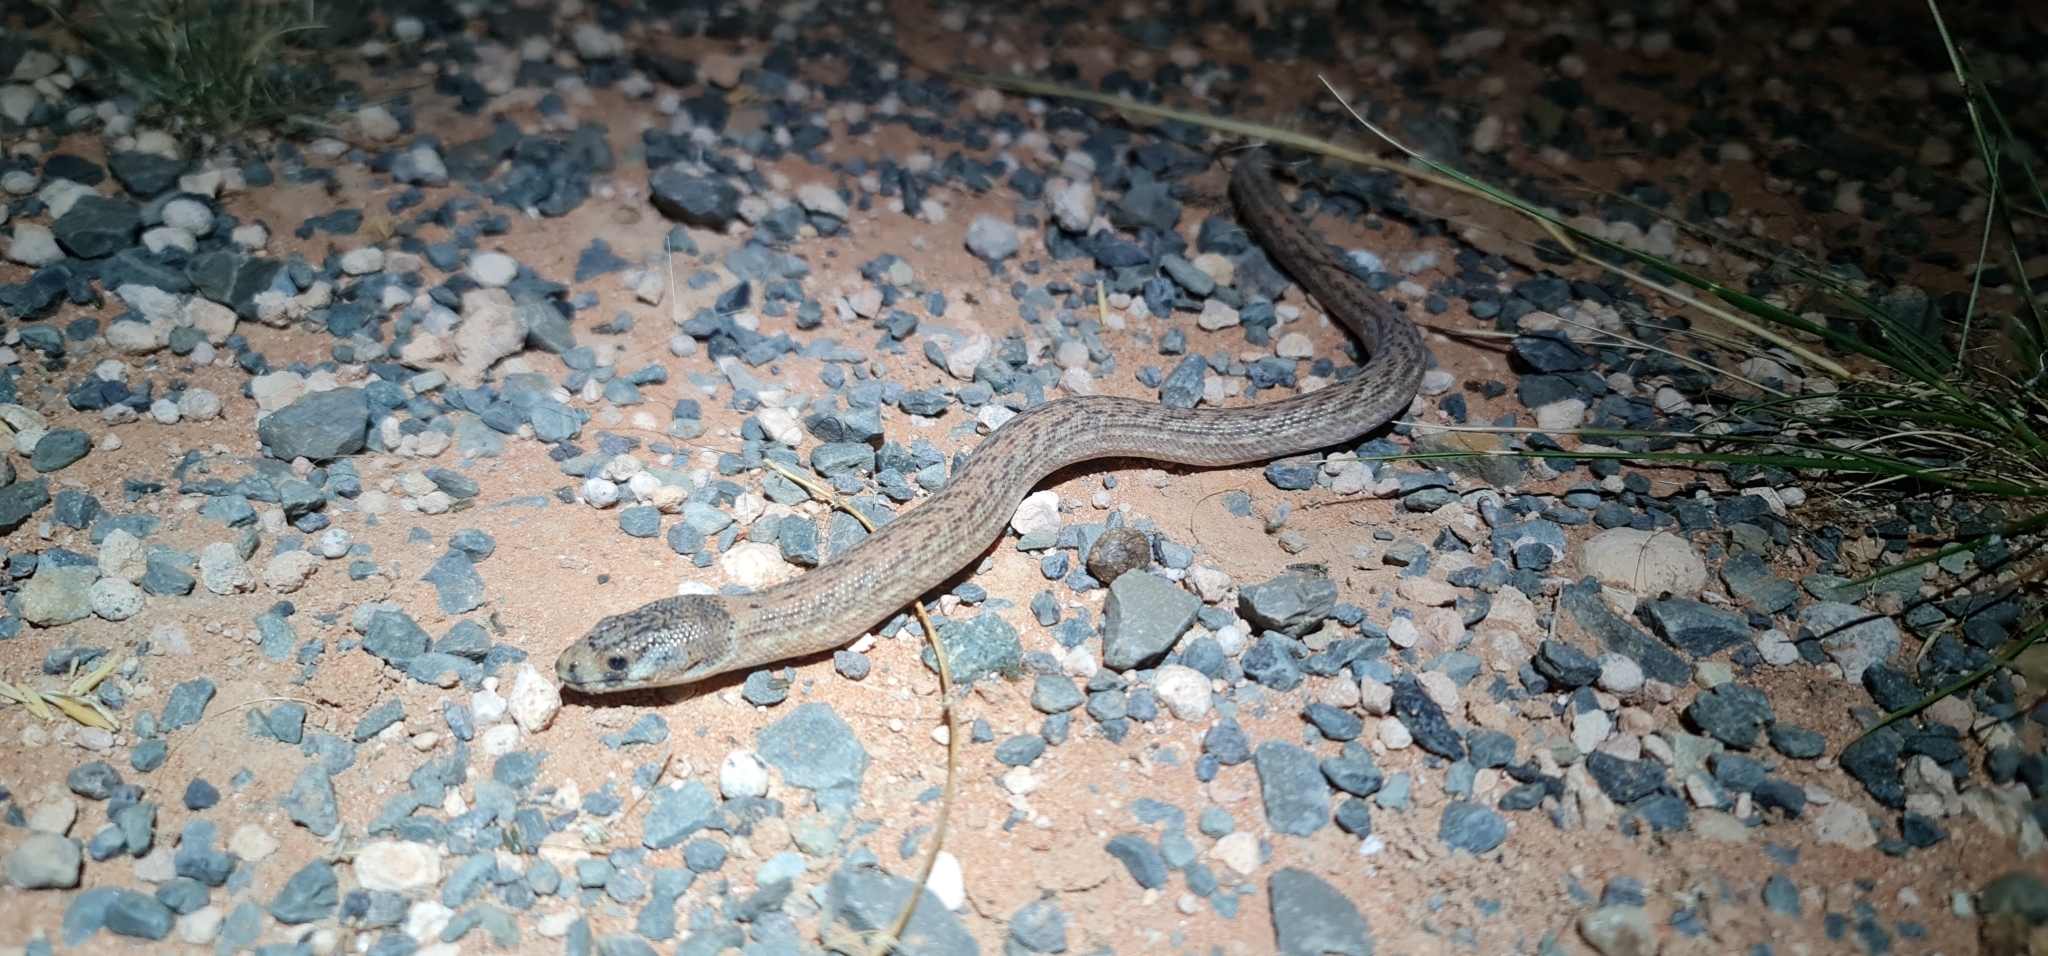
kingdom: Animalia
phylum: Chordata
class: Squamata
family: Pygopodidae
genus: Pygopus
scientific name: Pygopus schraderi
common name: Eastern scaly-foot
